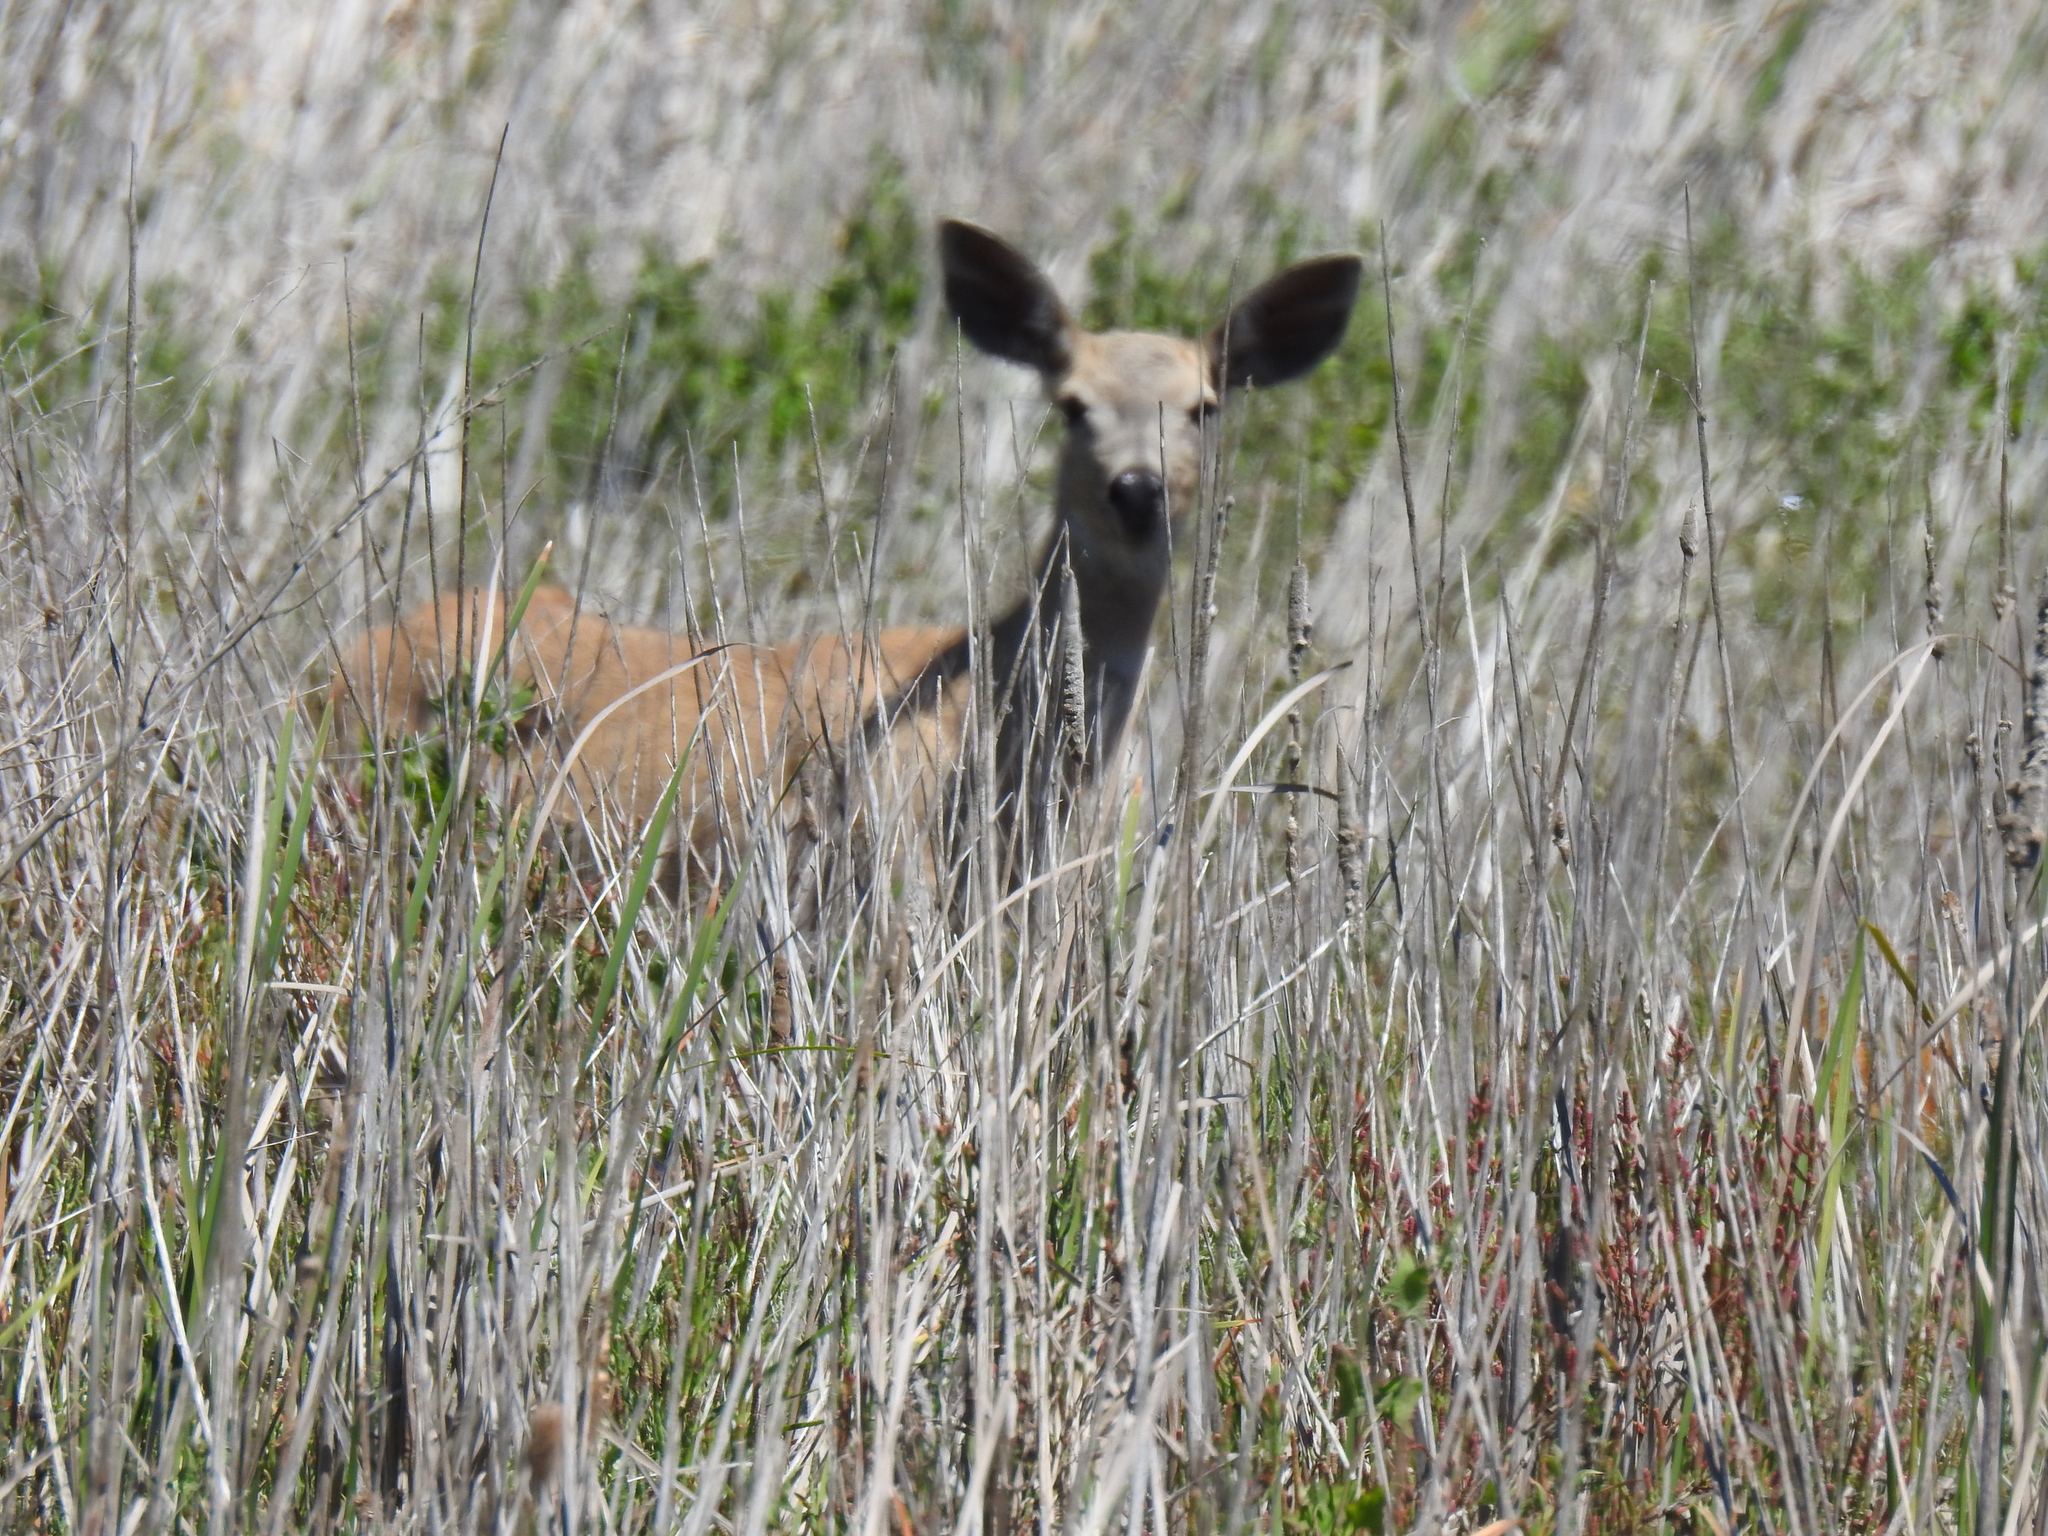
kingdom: Animalia
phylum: Chordata
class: Mammalia
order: Artiodactyla
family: Cervidae
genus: Odocoileus
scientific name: Odocoileus hemionus
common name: Mule deer
